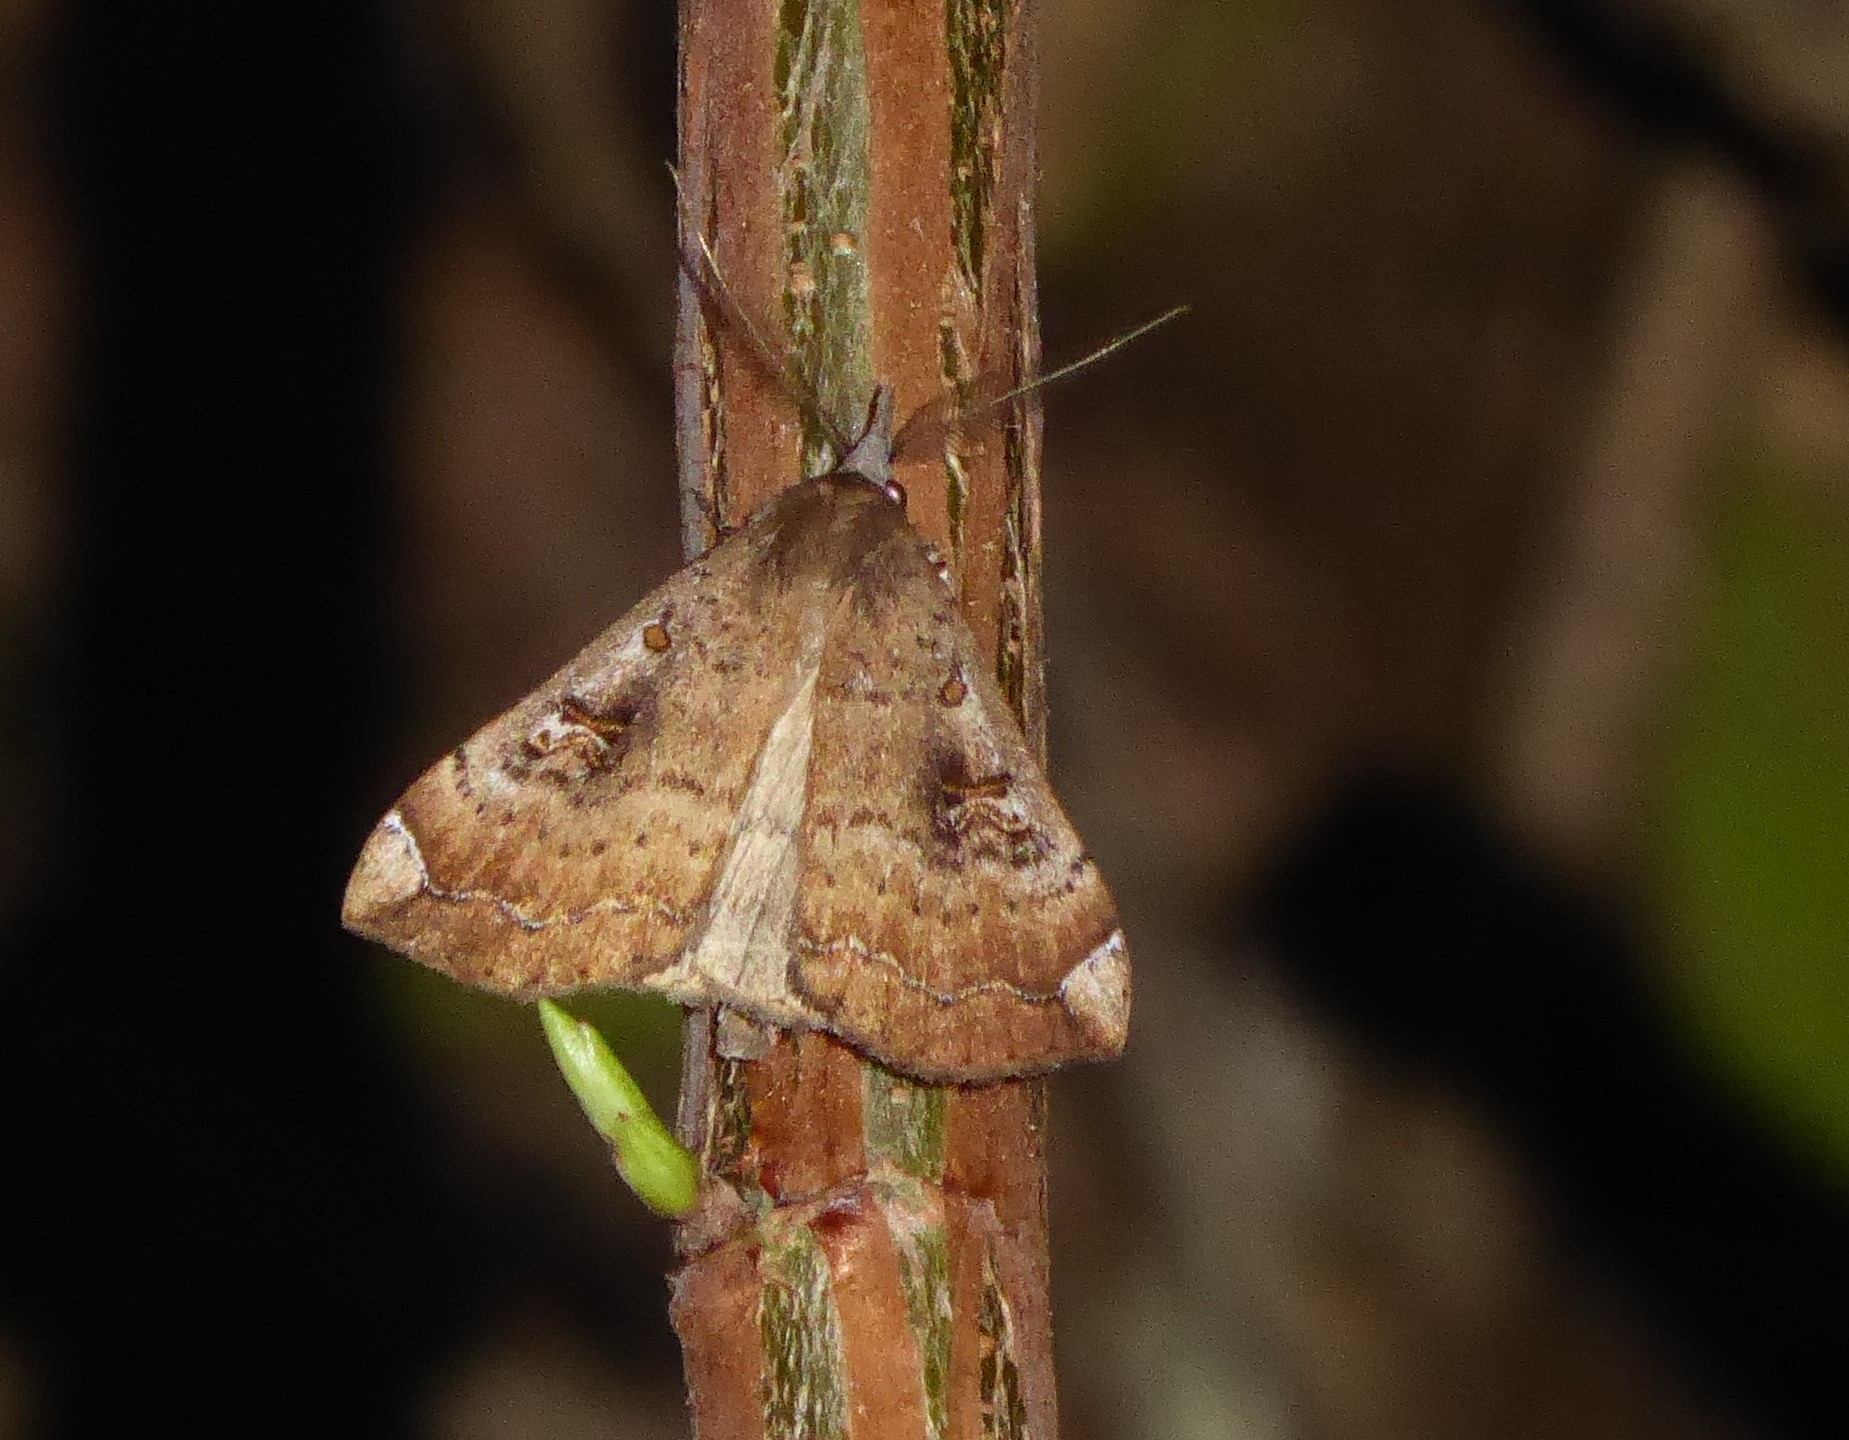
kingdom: Animalia
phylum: Arthropoda
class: Insecta
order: Lepidoptera
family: Erebidae
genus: Rhapsa
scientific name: Rhapsa scotosialis
